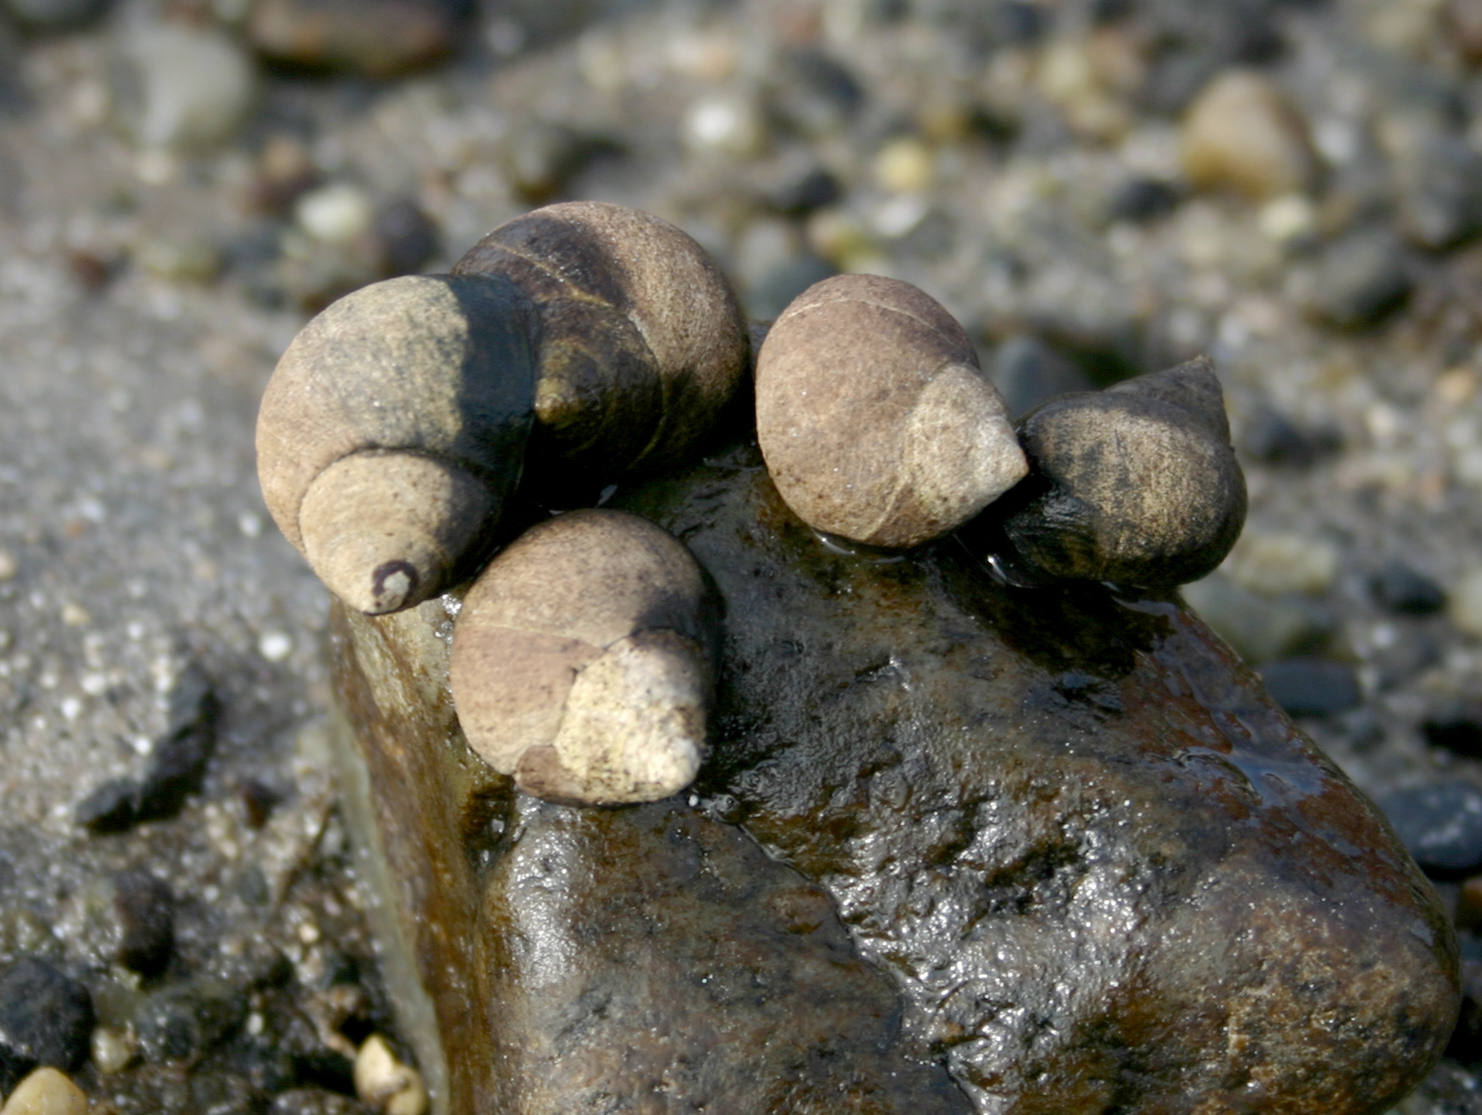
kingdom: Animalia
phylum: Mollusca
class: Gastropoda
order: Littorinimorpha
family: Littorinidae
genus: Littorina
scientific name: Littorina littorea
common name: Common periwinkle
